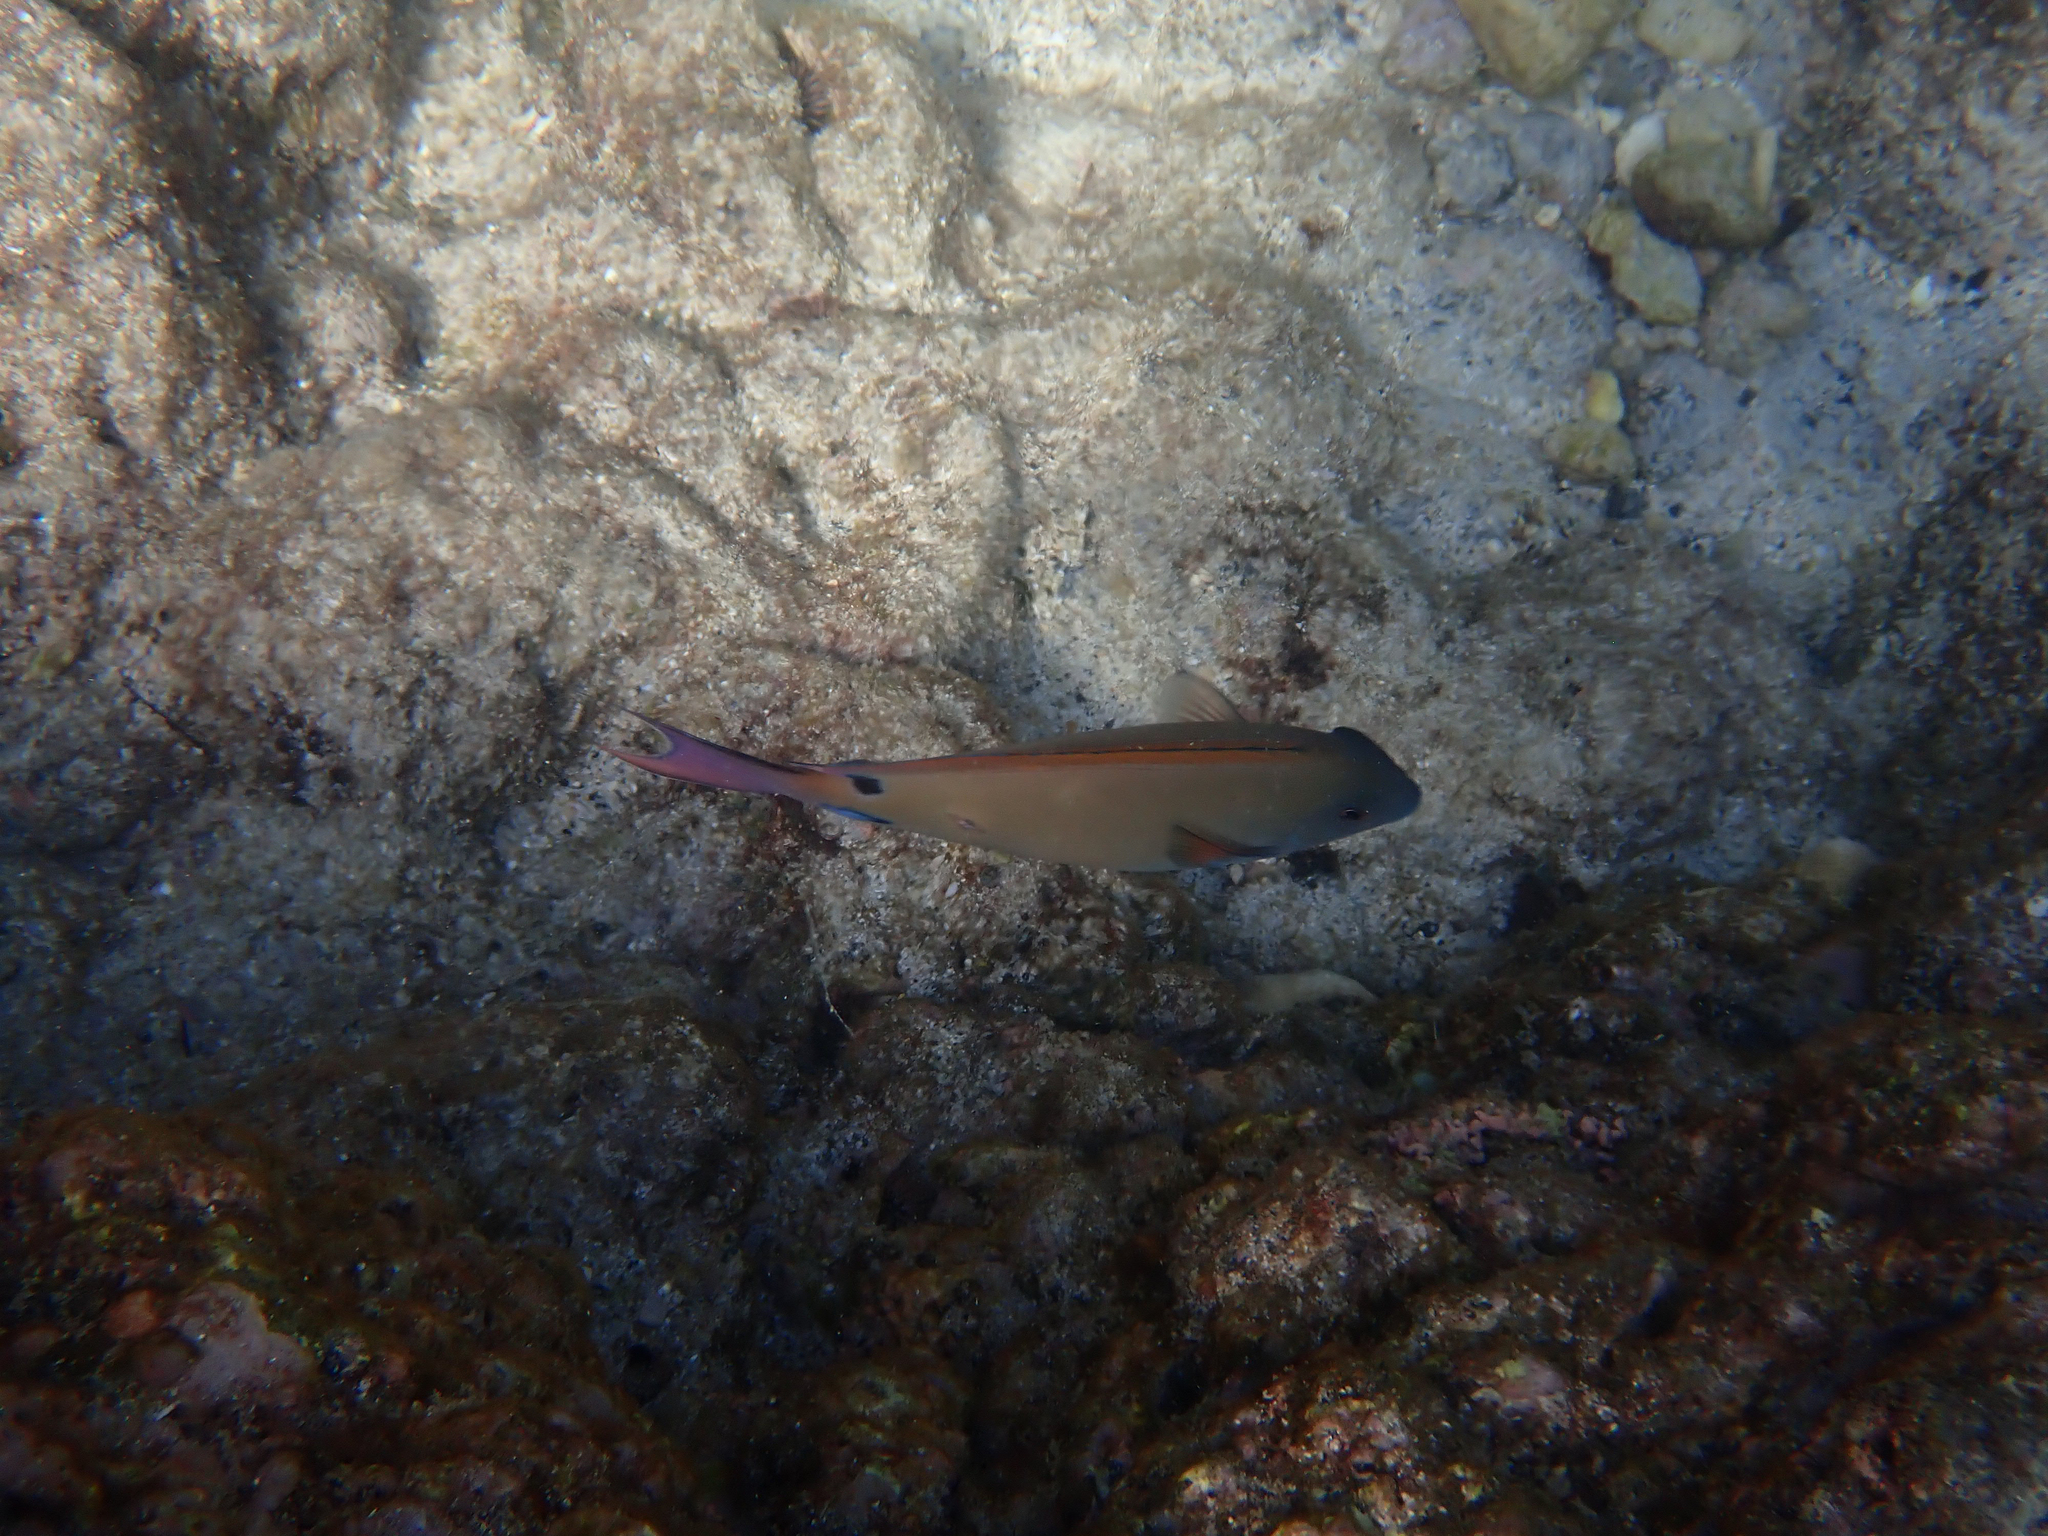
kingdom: Animalia
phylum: Chordata
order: Perciformes
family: Acanthuridae
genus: Acanthurus
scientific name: Acanthurus nigrofuscus
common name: Blackspot surgeonfish
